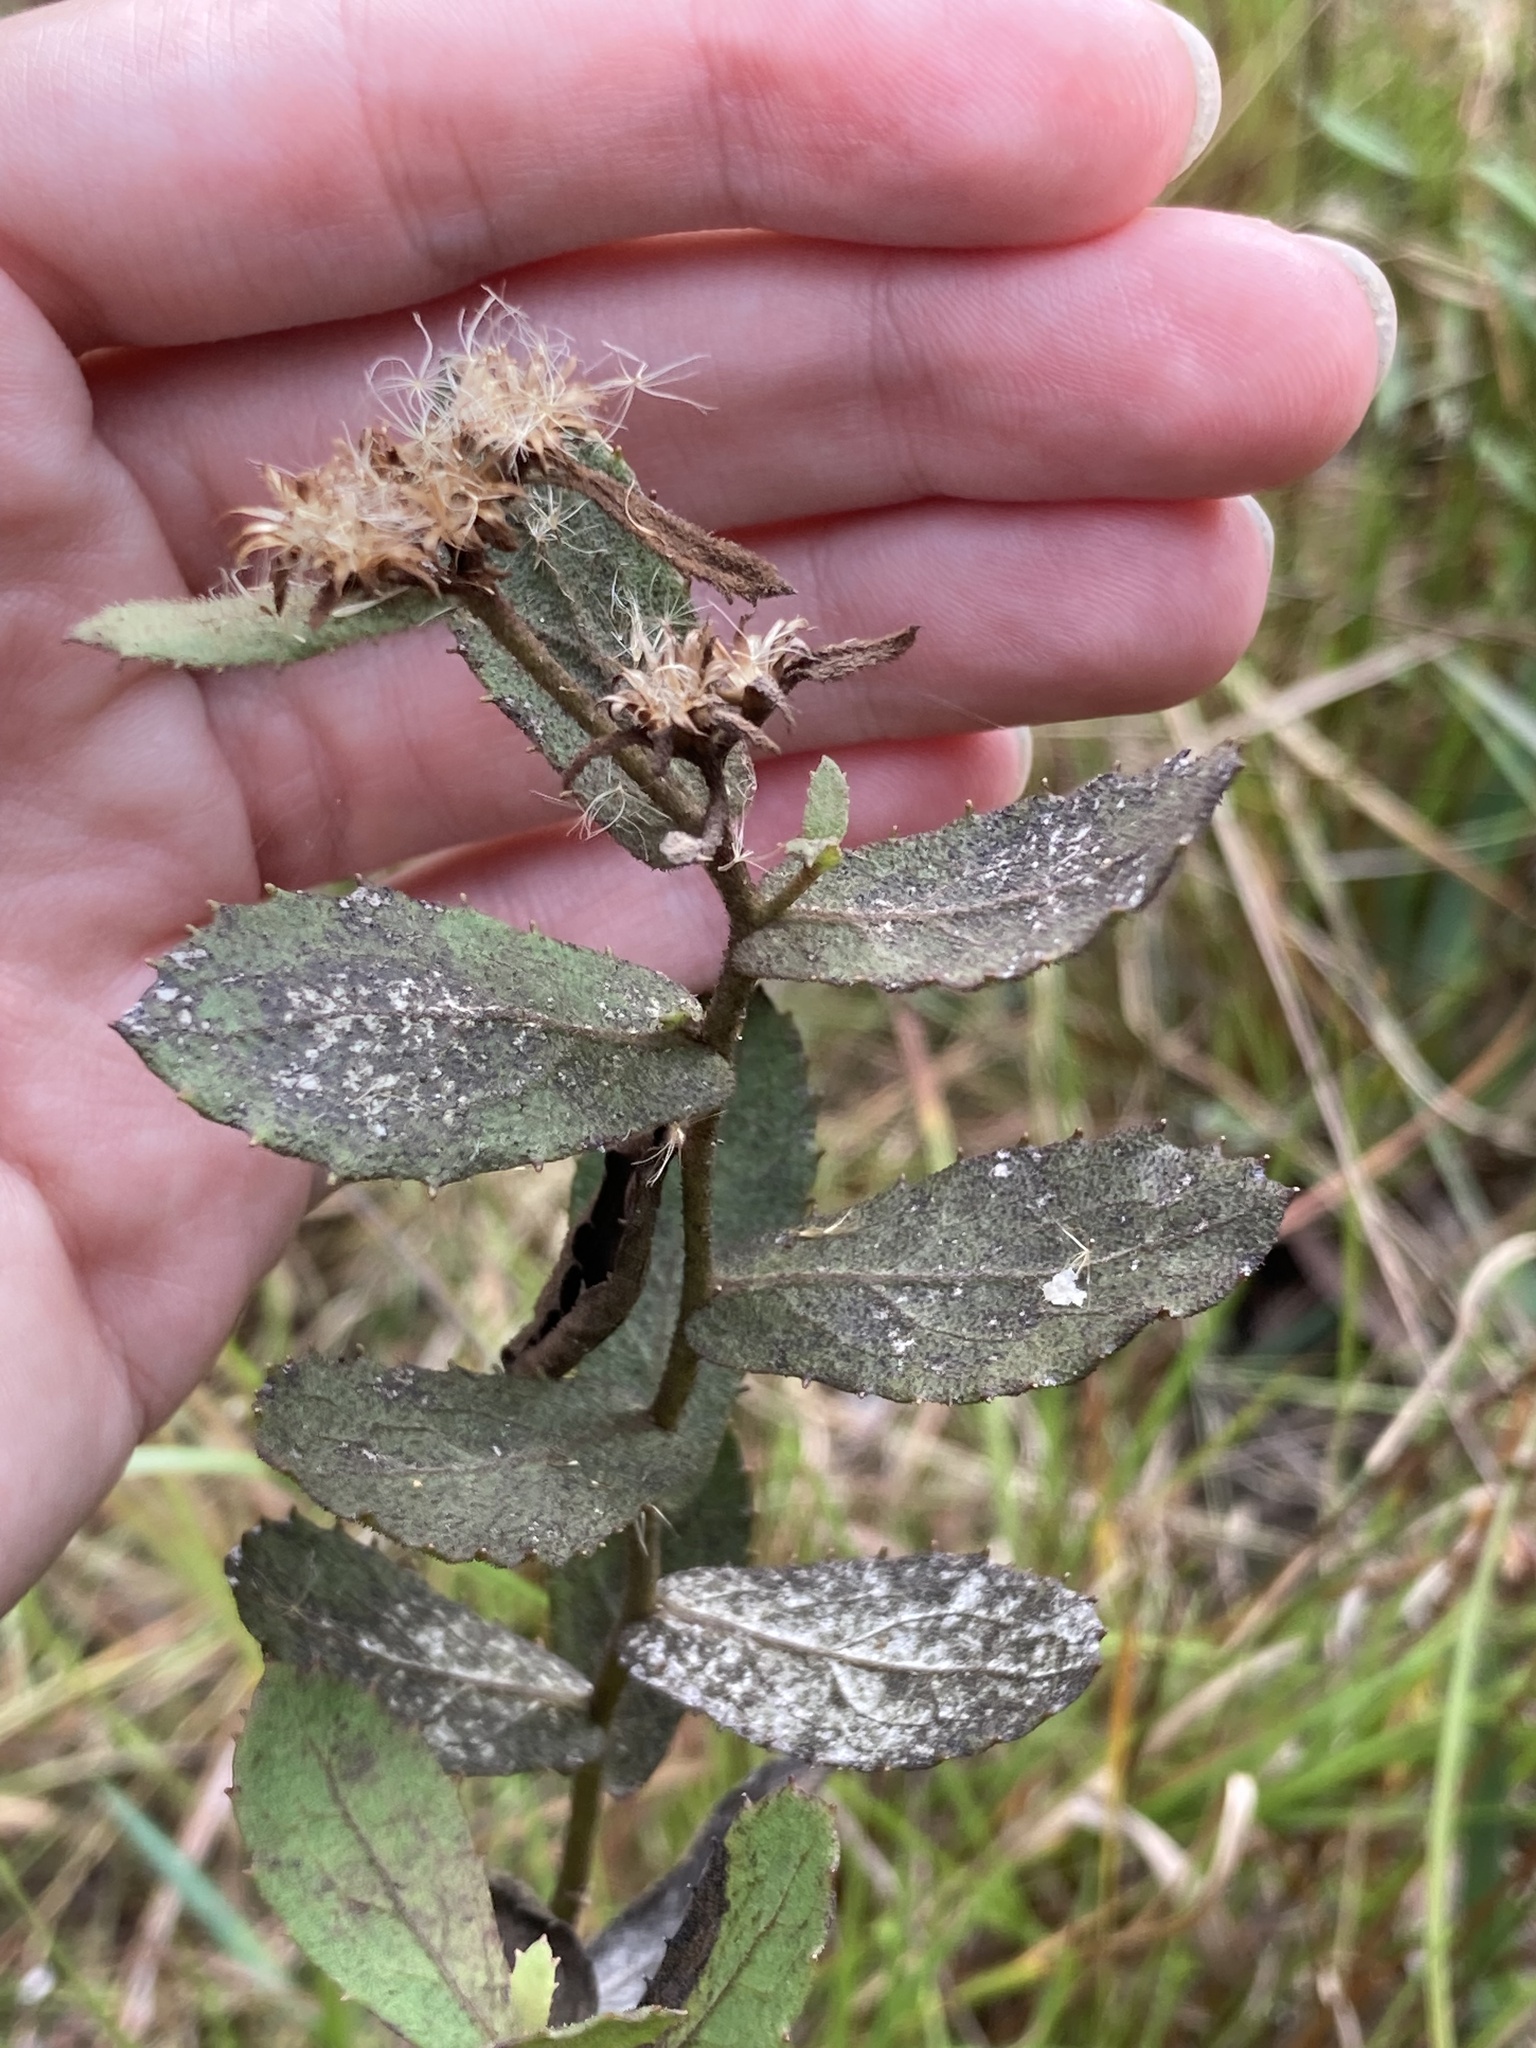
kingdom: Plantae
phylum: Tracheophyta
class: Magnoliopsida
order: Asterales
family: Asteraceae
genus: Pluchea
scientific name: Pluchea baccharis
